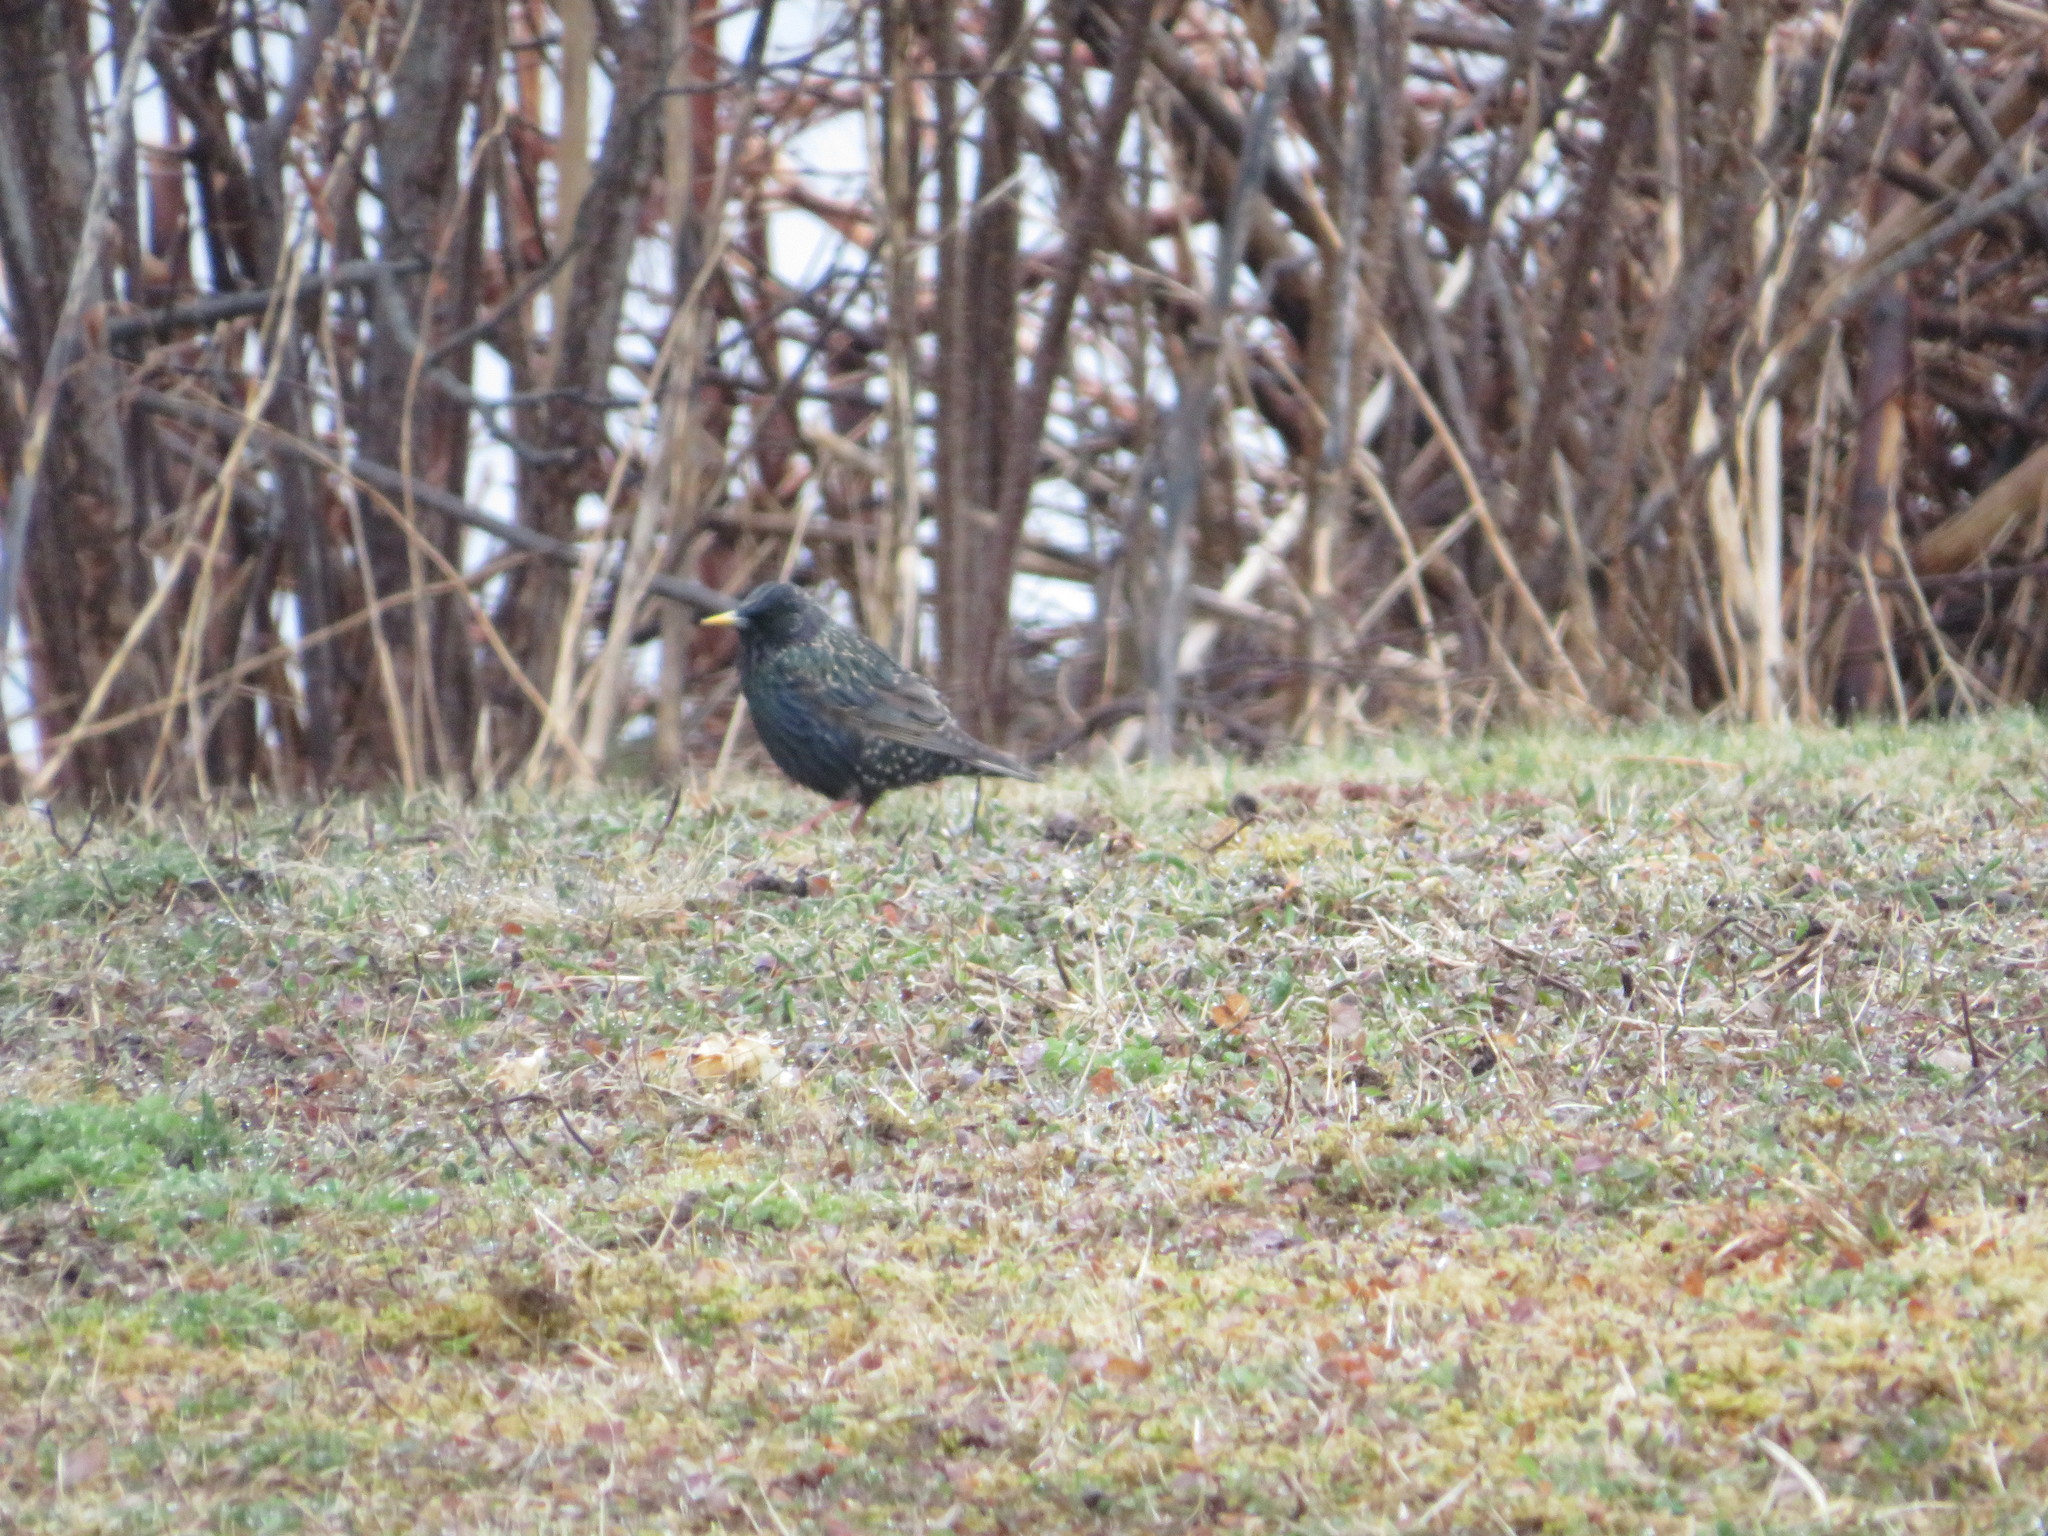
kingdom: Animalia
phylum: Chordata
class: Aves
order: Passeriformes
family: Sturnidae
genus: Sturnus
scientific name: Sturnus vulgaris
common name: Common starling
